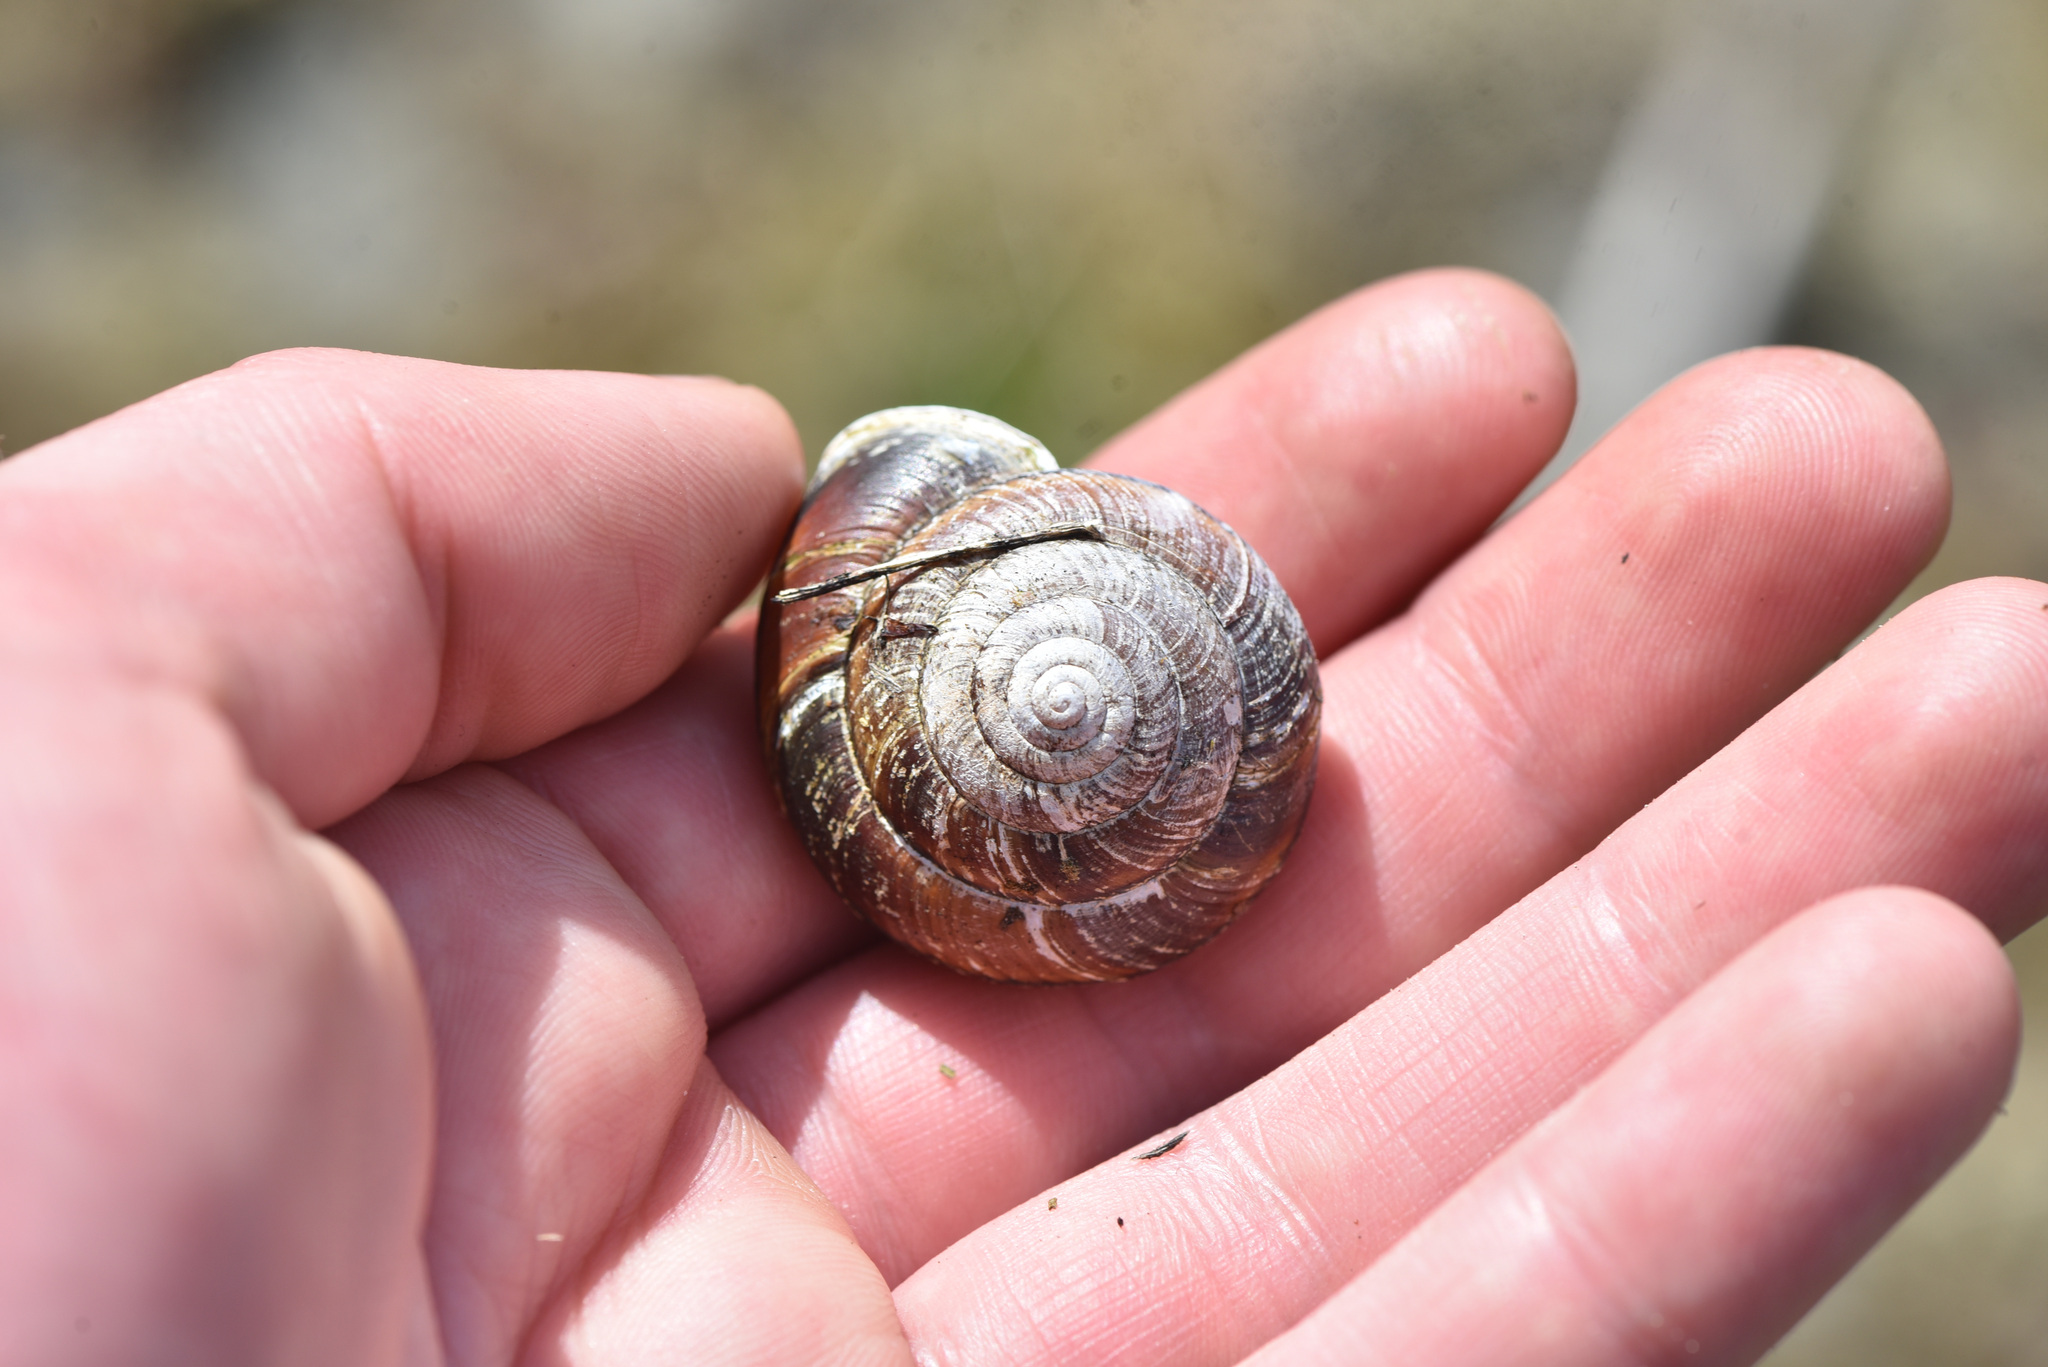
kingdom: Animalia
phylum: Mollusca
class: Gastropoda
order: Stylommatophora
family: Xanthonychidae
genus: Monadenia
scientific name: Monadenia fidelis
